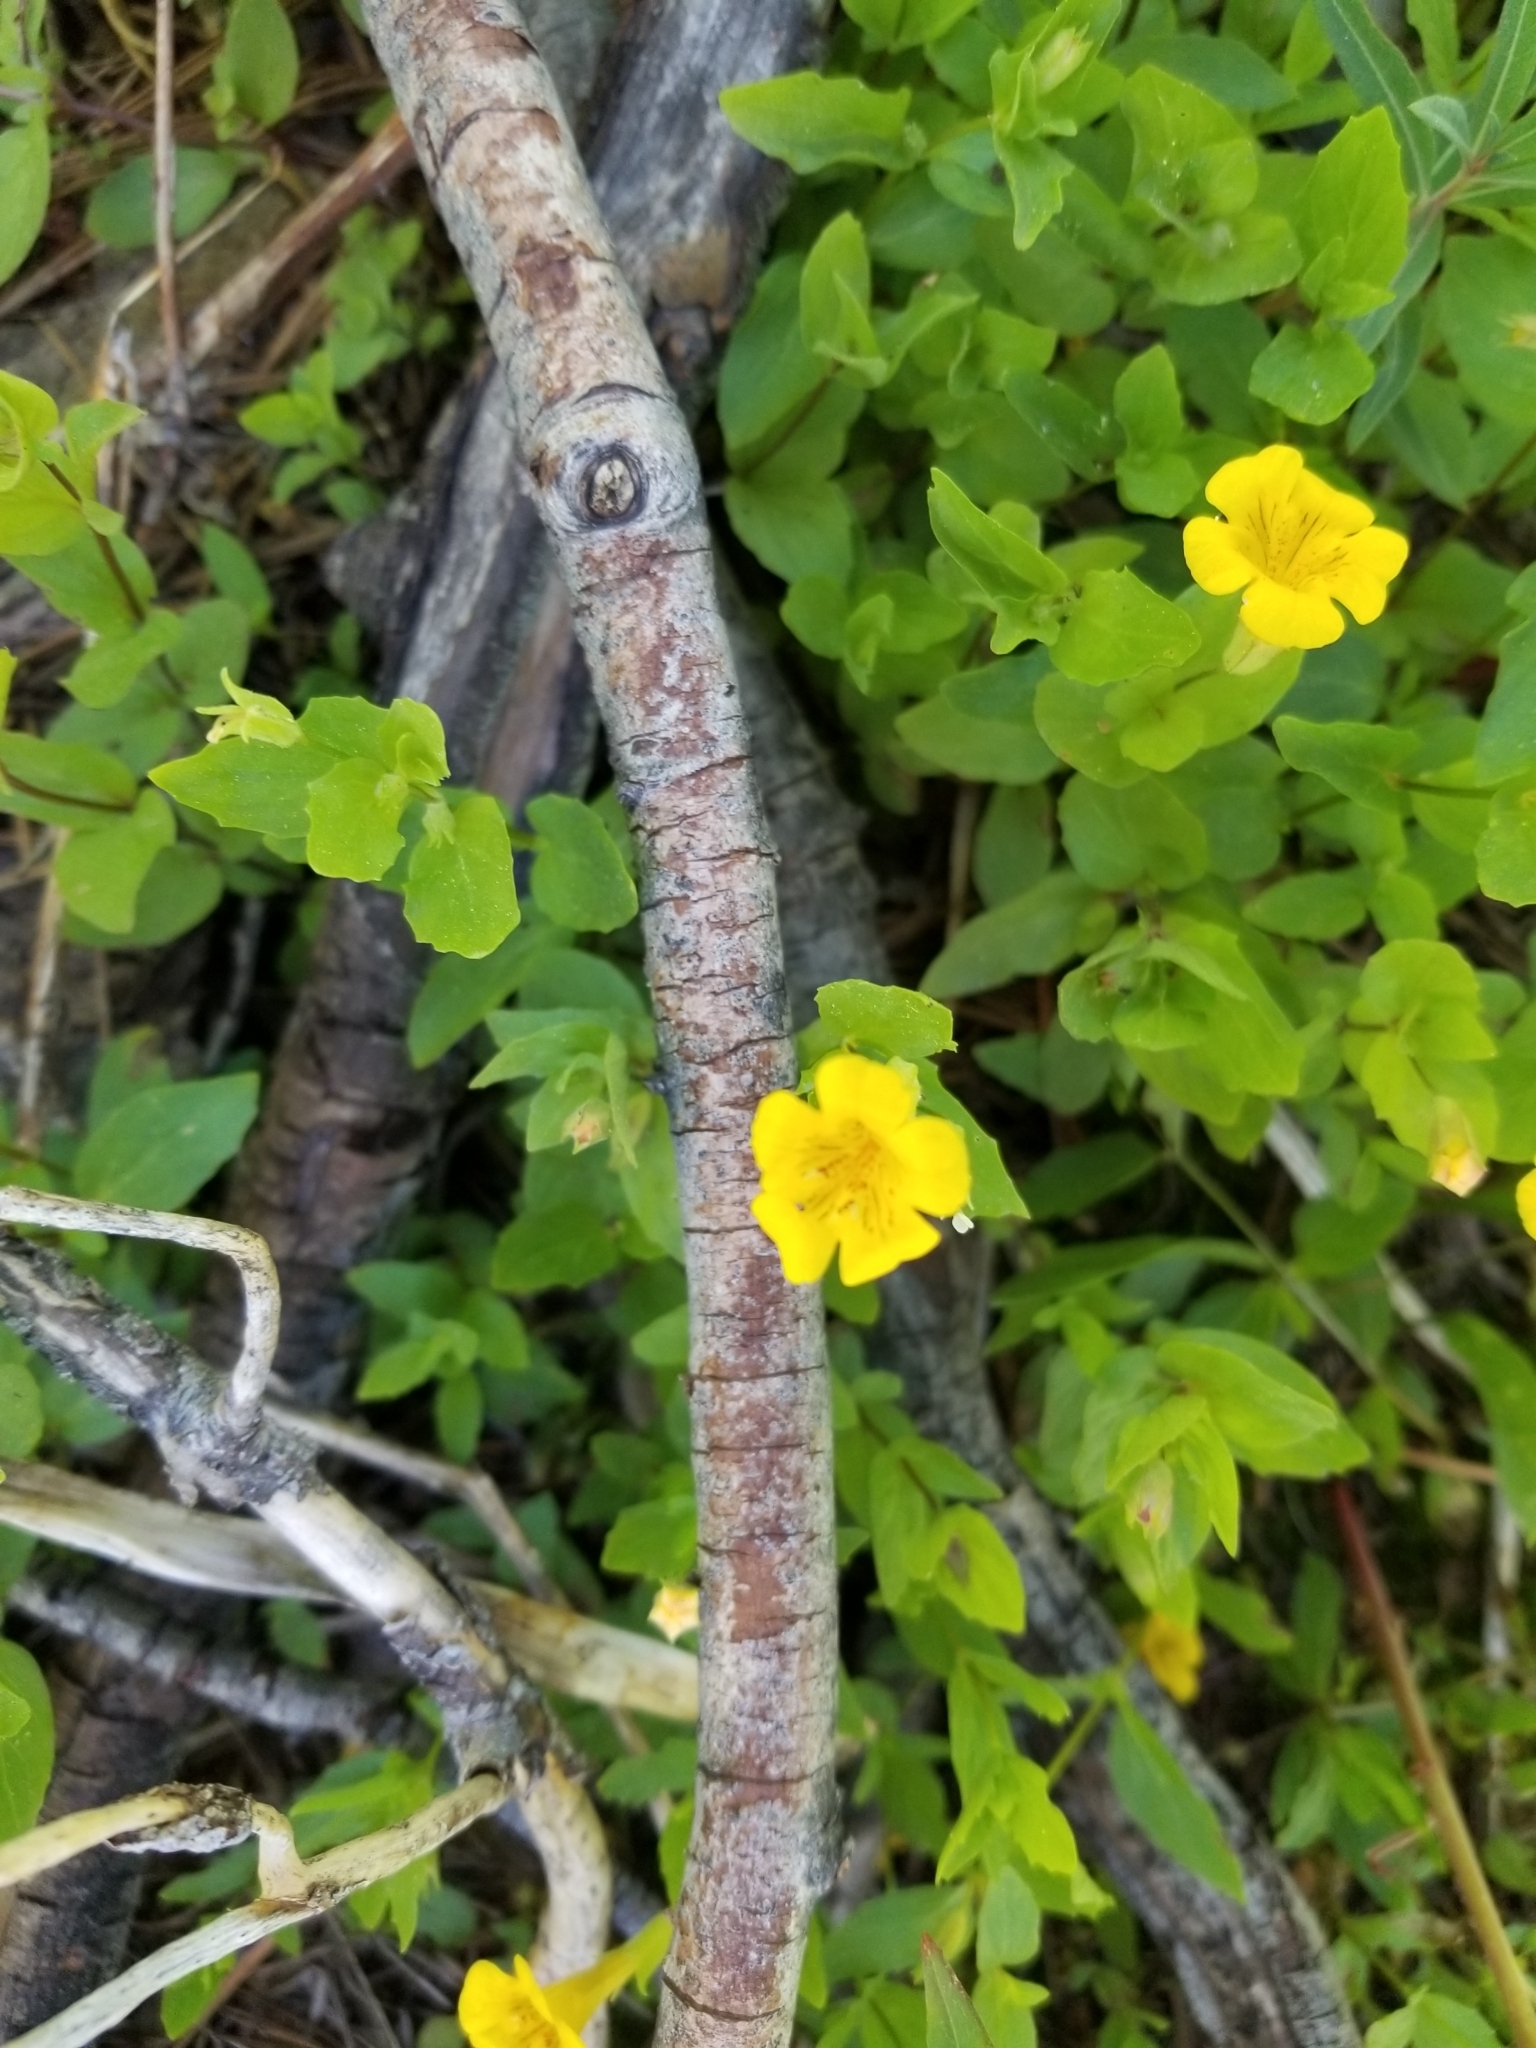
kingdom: Plantae
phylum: Tracheophyta
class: Magnoliopsida
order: Lamiales
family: Phrymaceae
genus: Erythranthe
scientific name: Erythranthe moschata
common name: Muskflower
